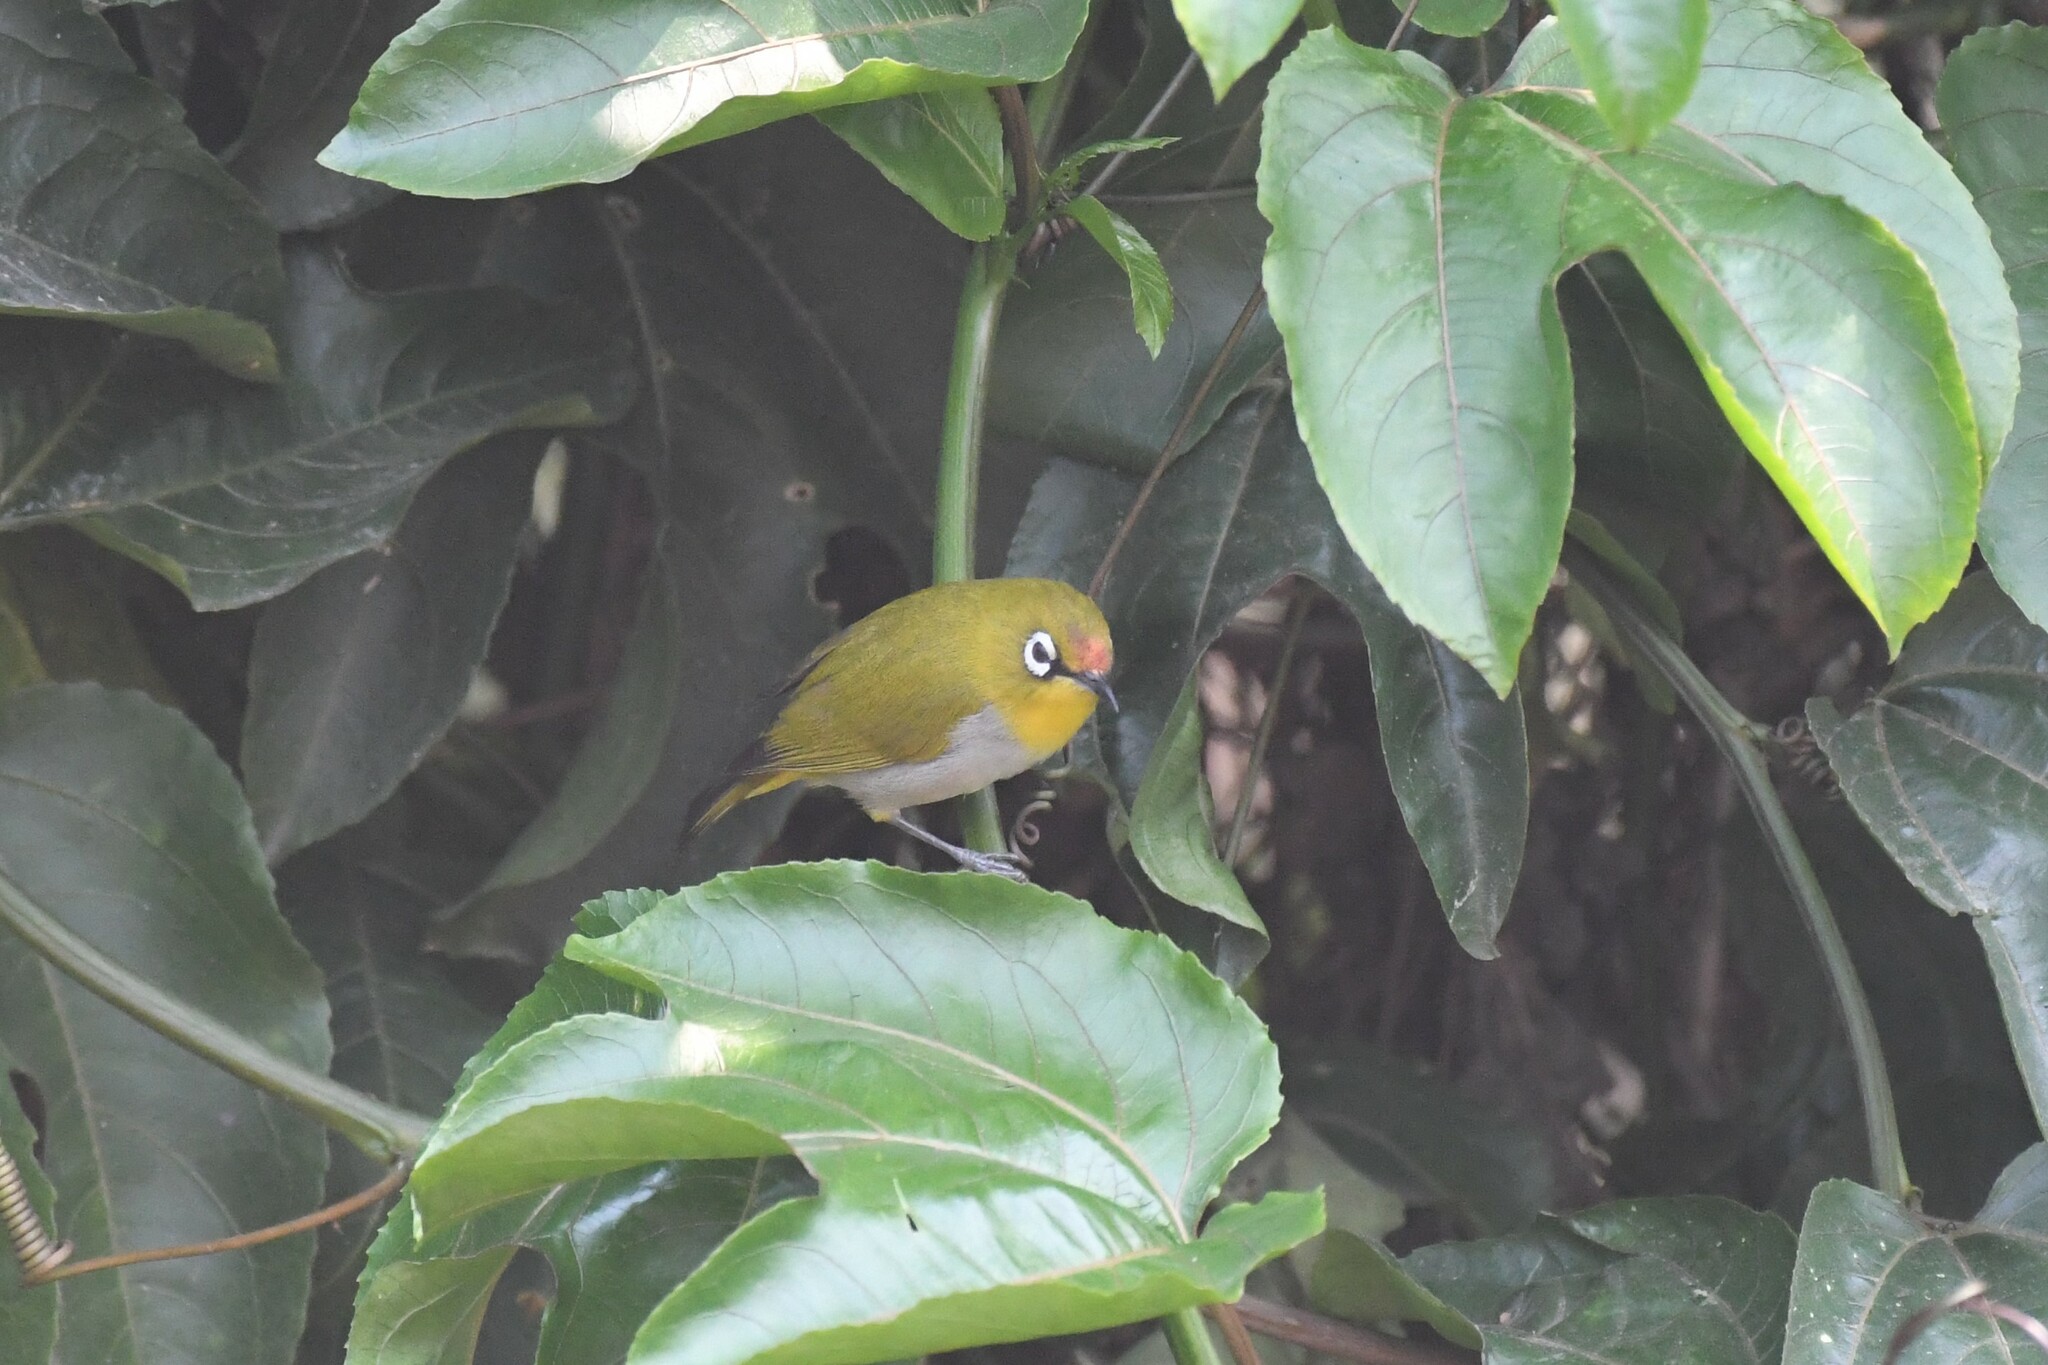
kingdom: Animalia
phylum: Chordata
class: Aves
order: Passeriformes
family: Zosteropidae
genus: Zosterops
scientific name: Zosterops palpebrosus
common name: Oriental white-eye
